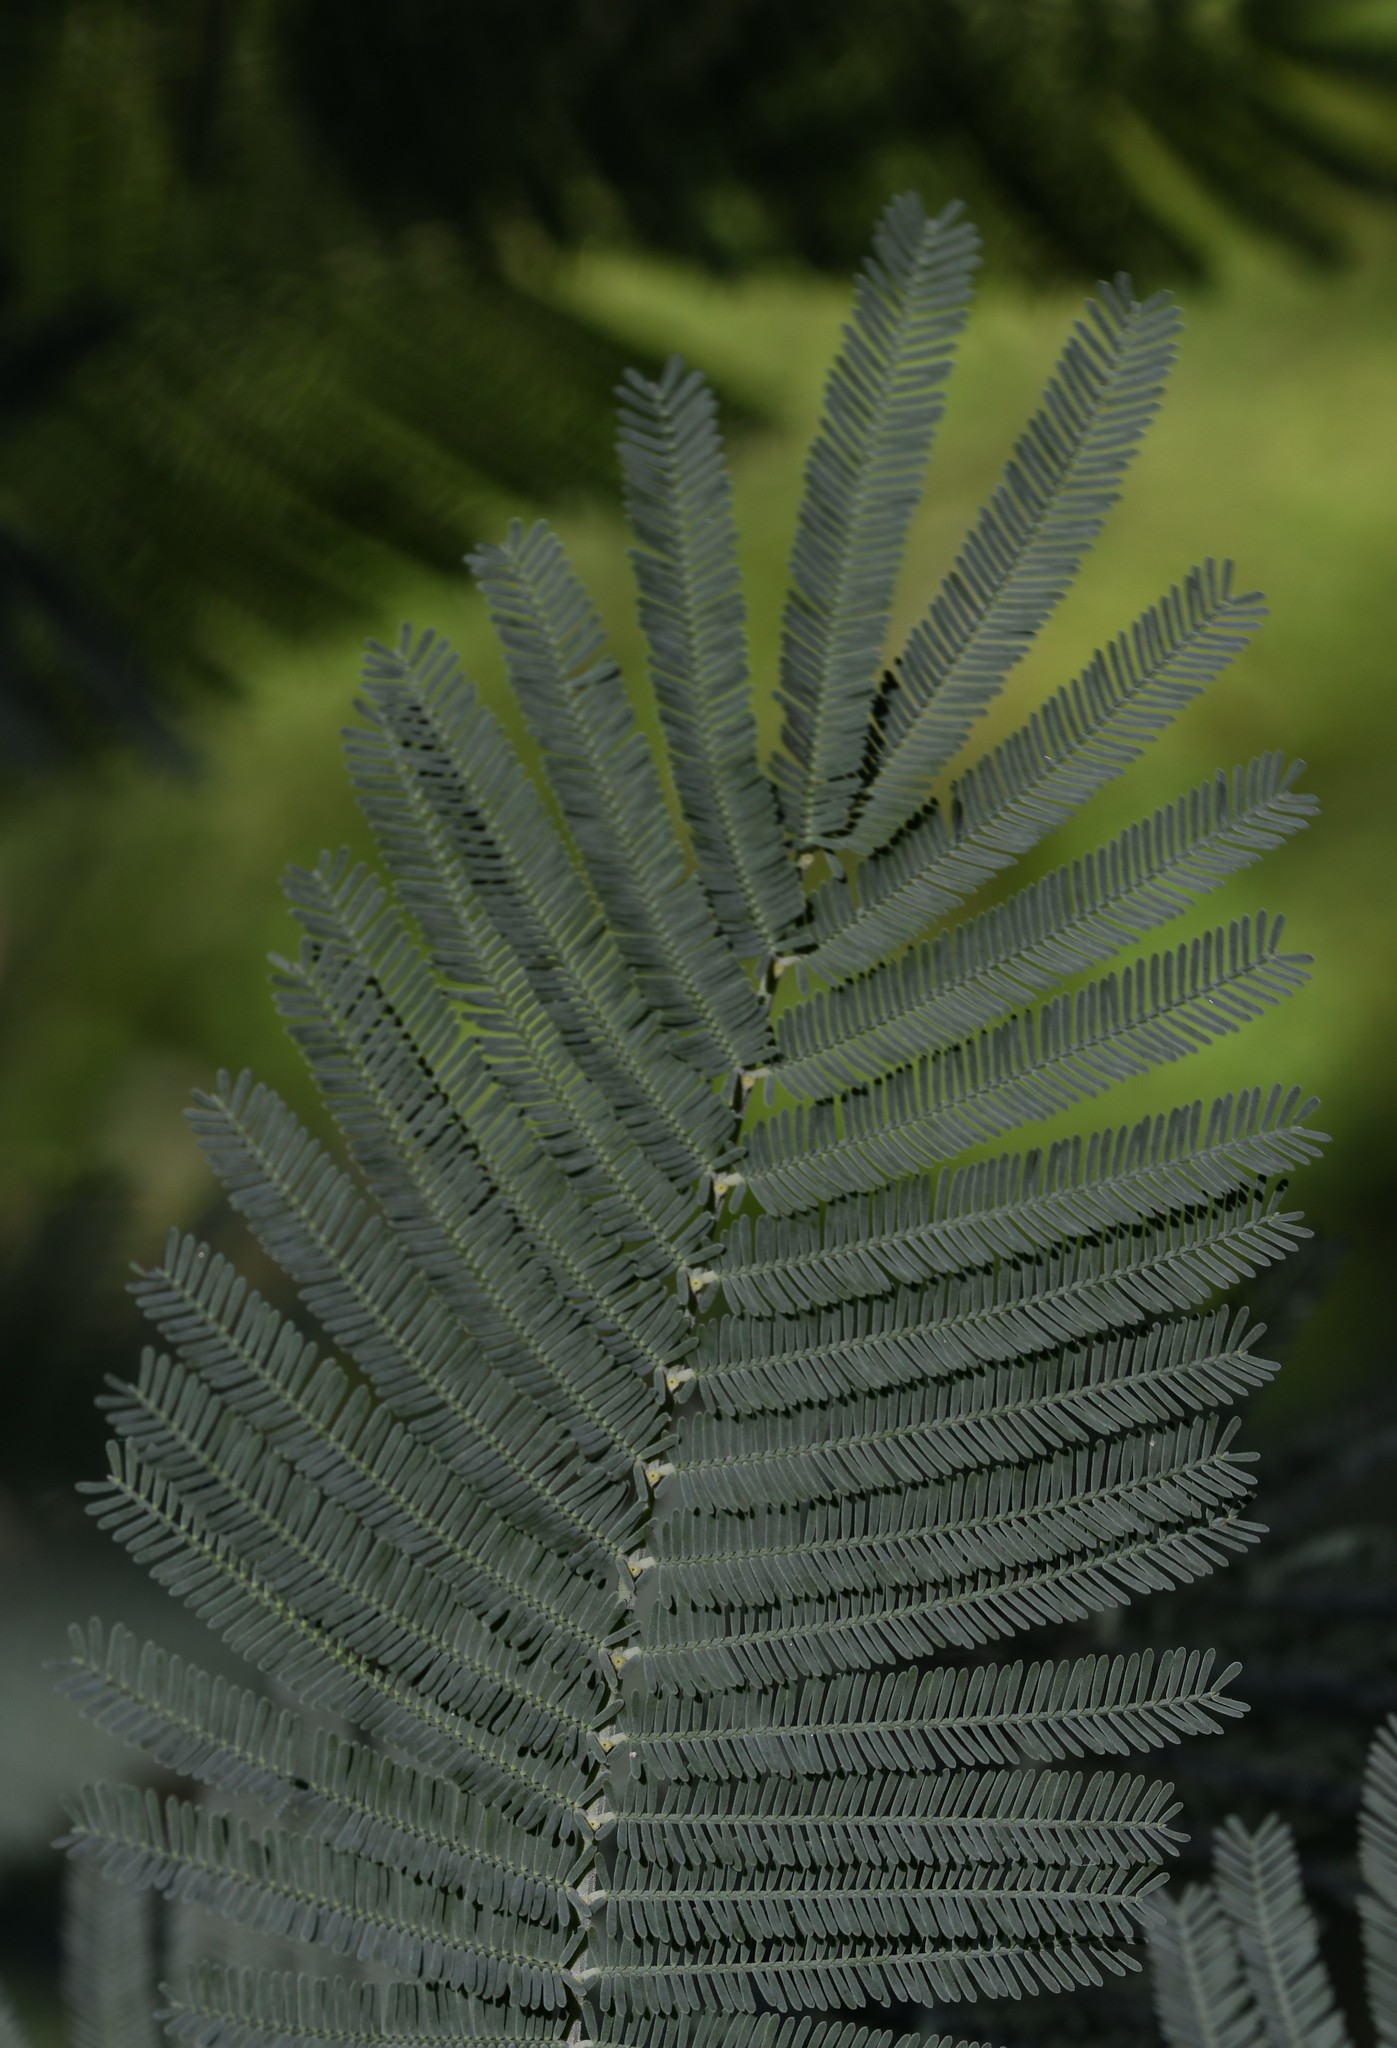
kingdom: Plantae
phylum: Tracheophyta
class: Magnoliopsida
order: Fabales
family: Fabaceae
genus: Acacia
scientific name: Acacia dealbata
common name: Silver wattle
